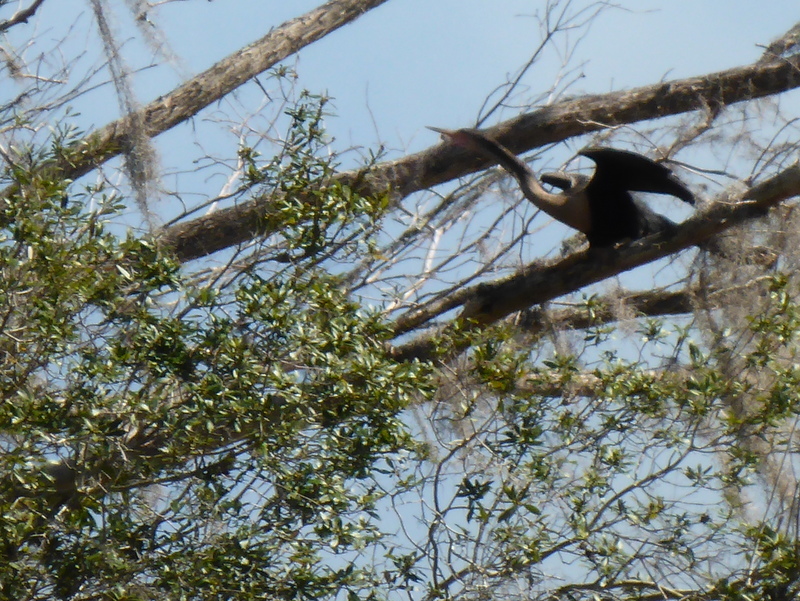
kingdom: Animalia
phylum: Chordata
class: Aves
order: Suliformes
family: Anhingidae
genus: Anhinga
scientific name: Anhinga anhinga
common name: Anhinga
